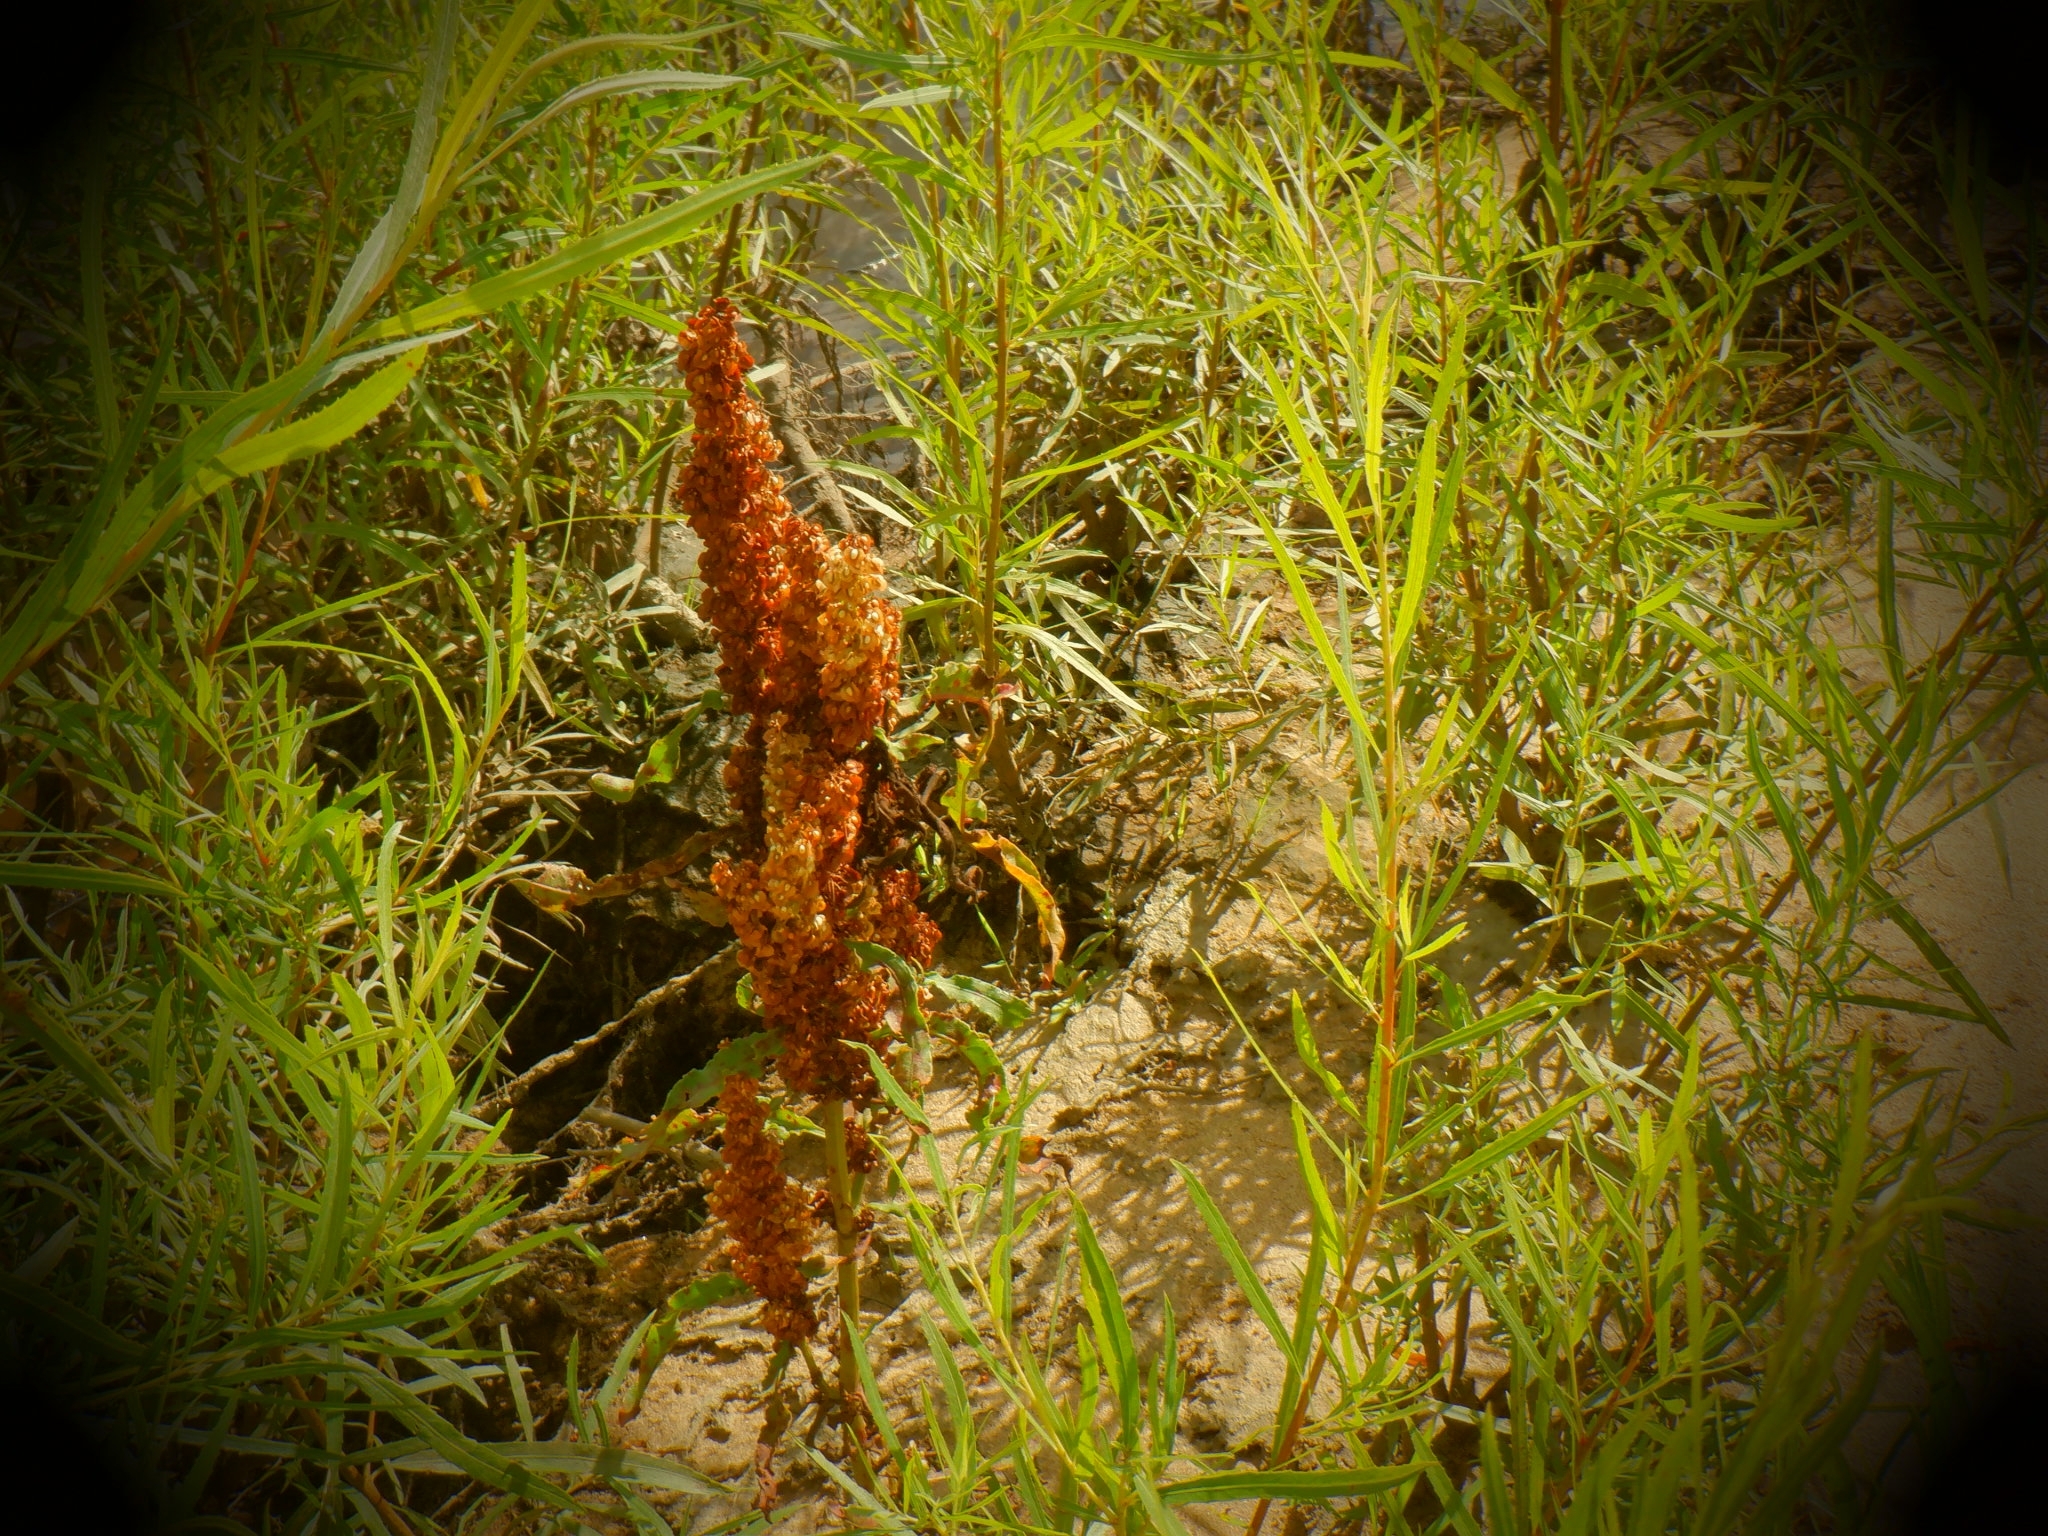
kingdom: Plantae
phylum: Tracheophyta
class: Magnoliopsida
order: Caryophyllales
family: Polygonaceae
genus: Rumex
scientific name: Rumex crispus
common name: Curled dock
